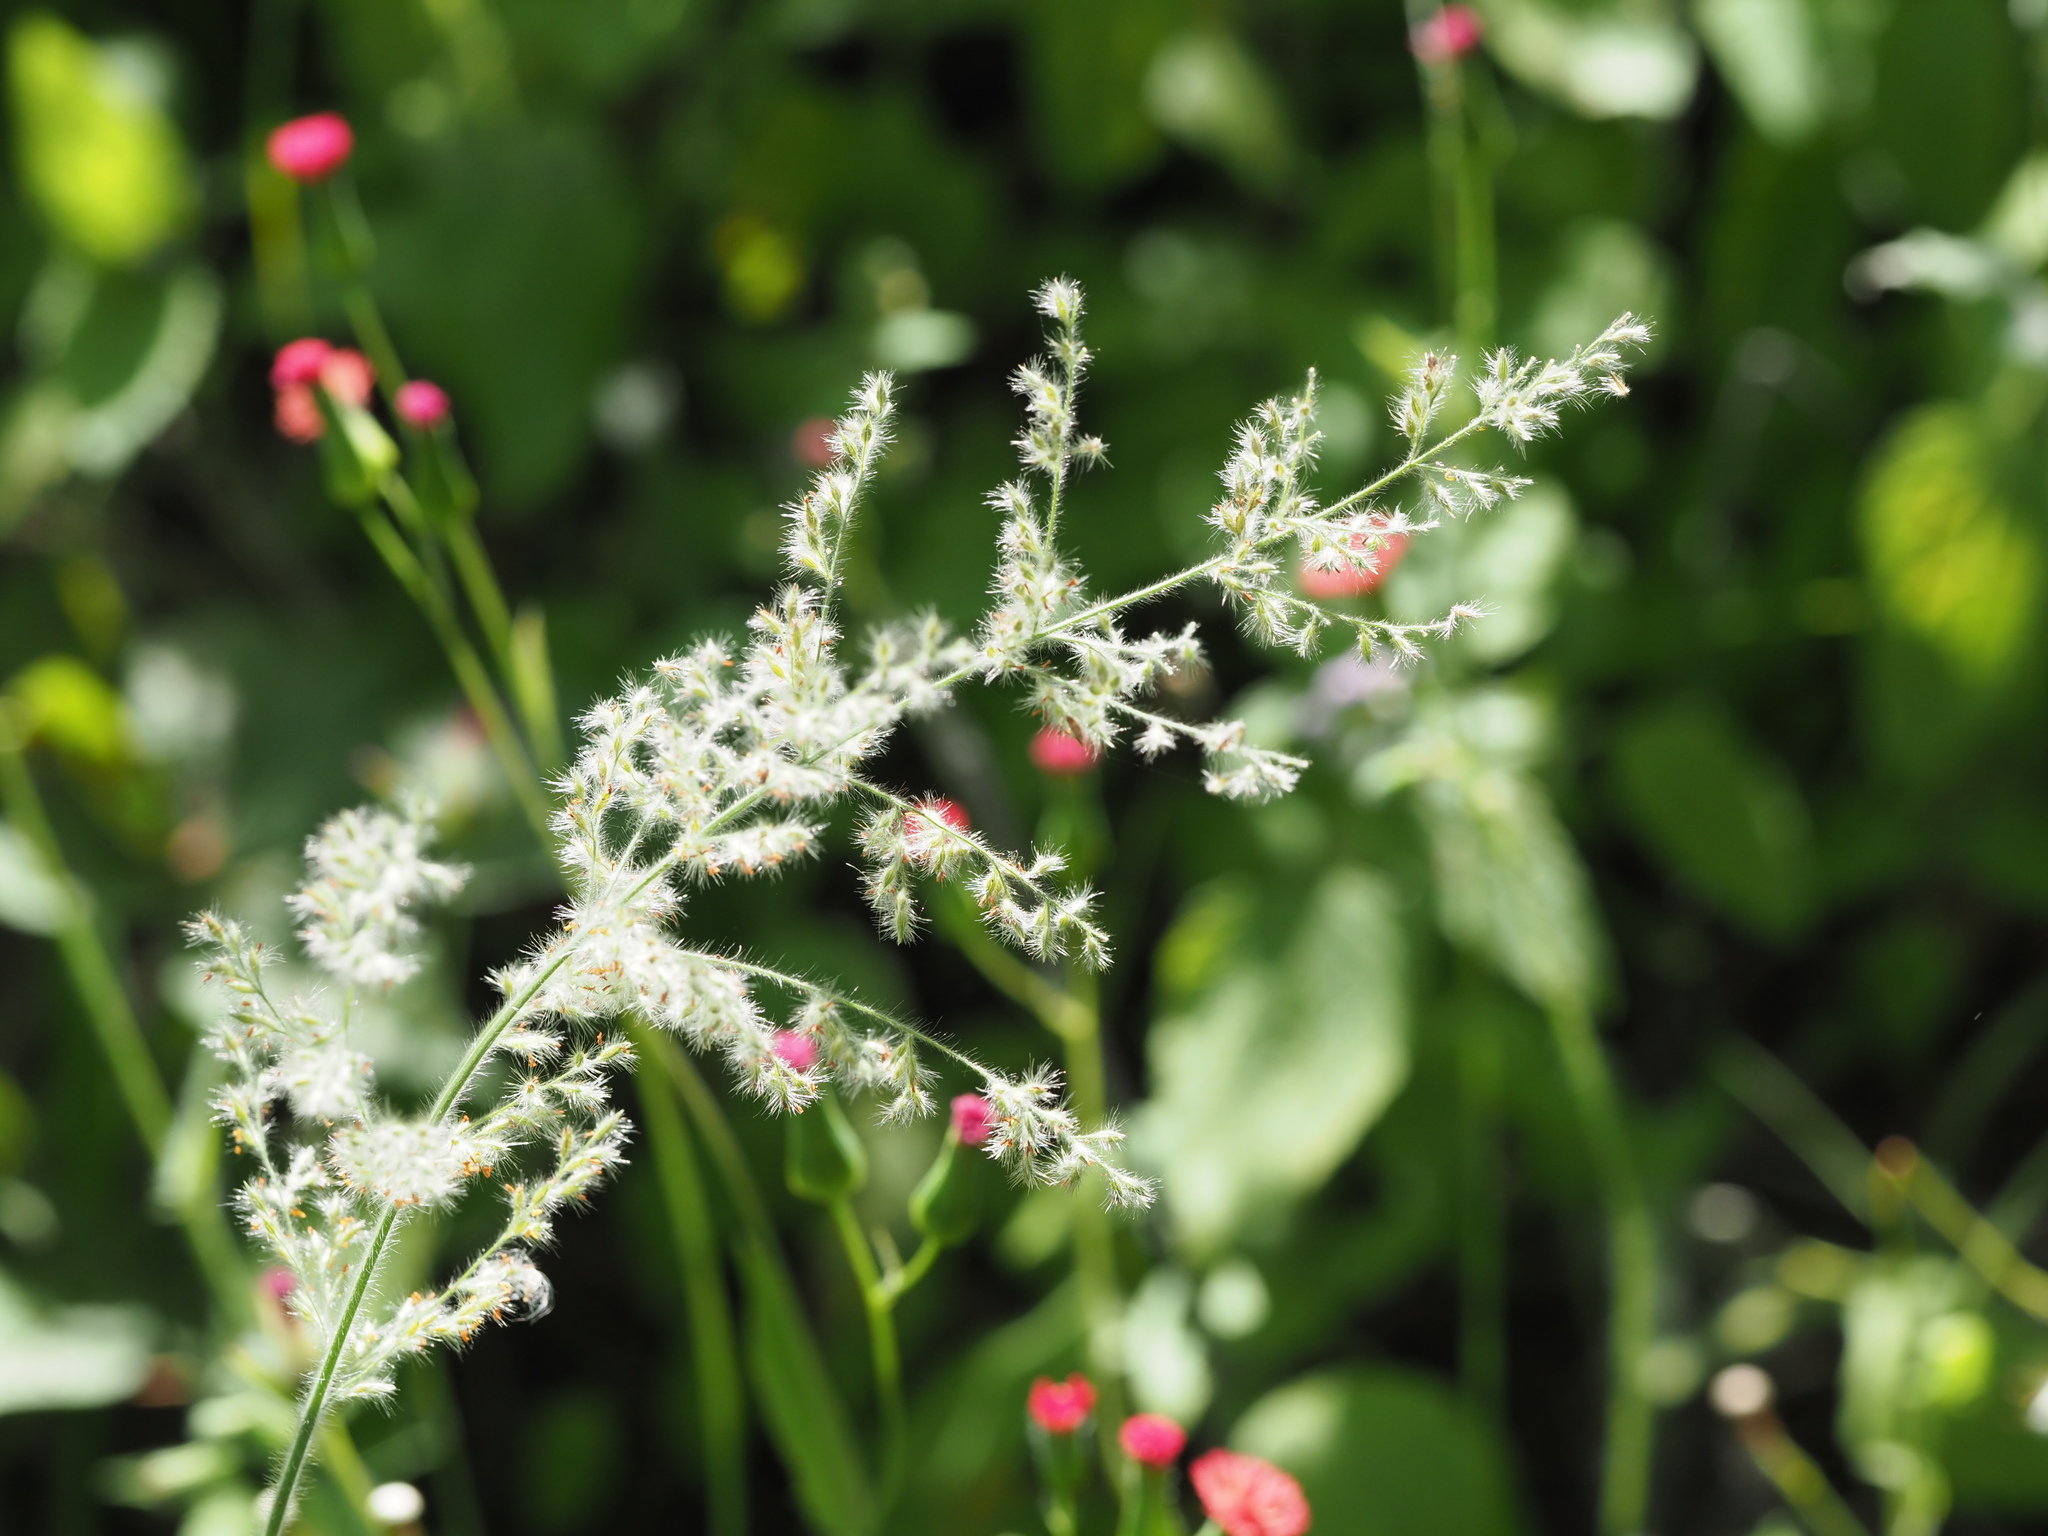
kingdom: Plantae
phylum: Tracheophyta
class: Liliopsida
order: Poales
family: Poaceae
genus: Panicum
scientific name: Panicum torridum
